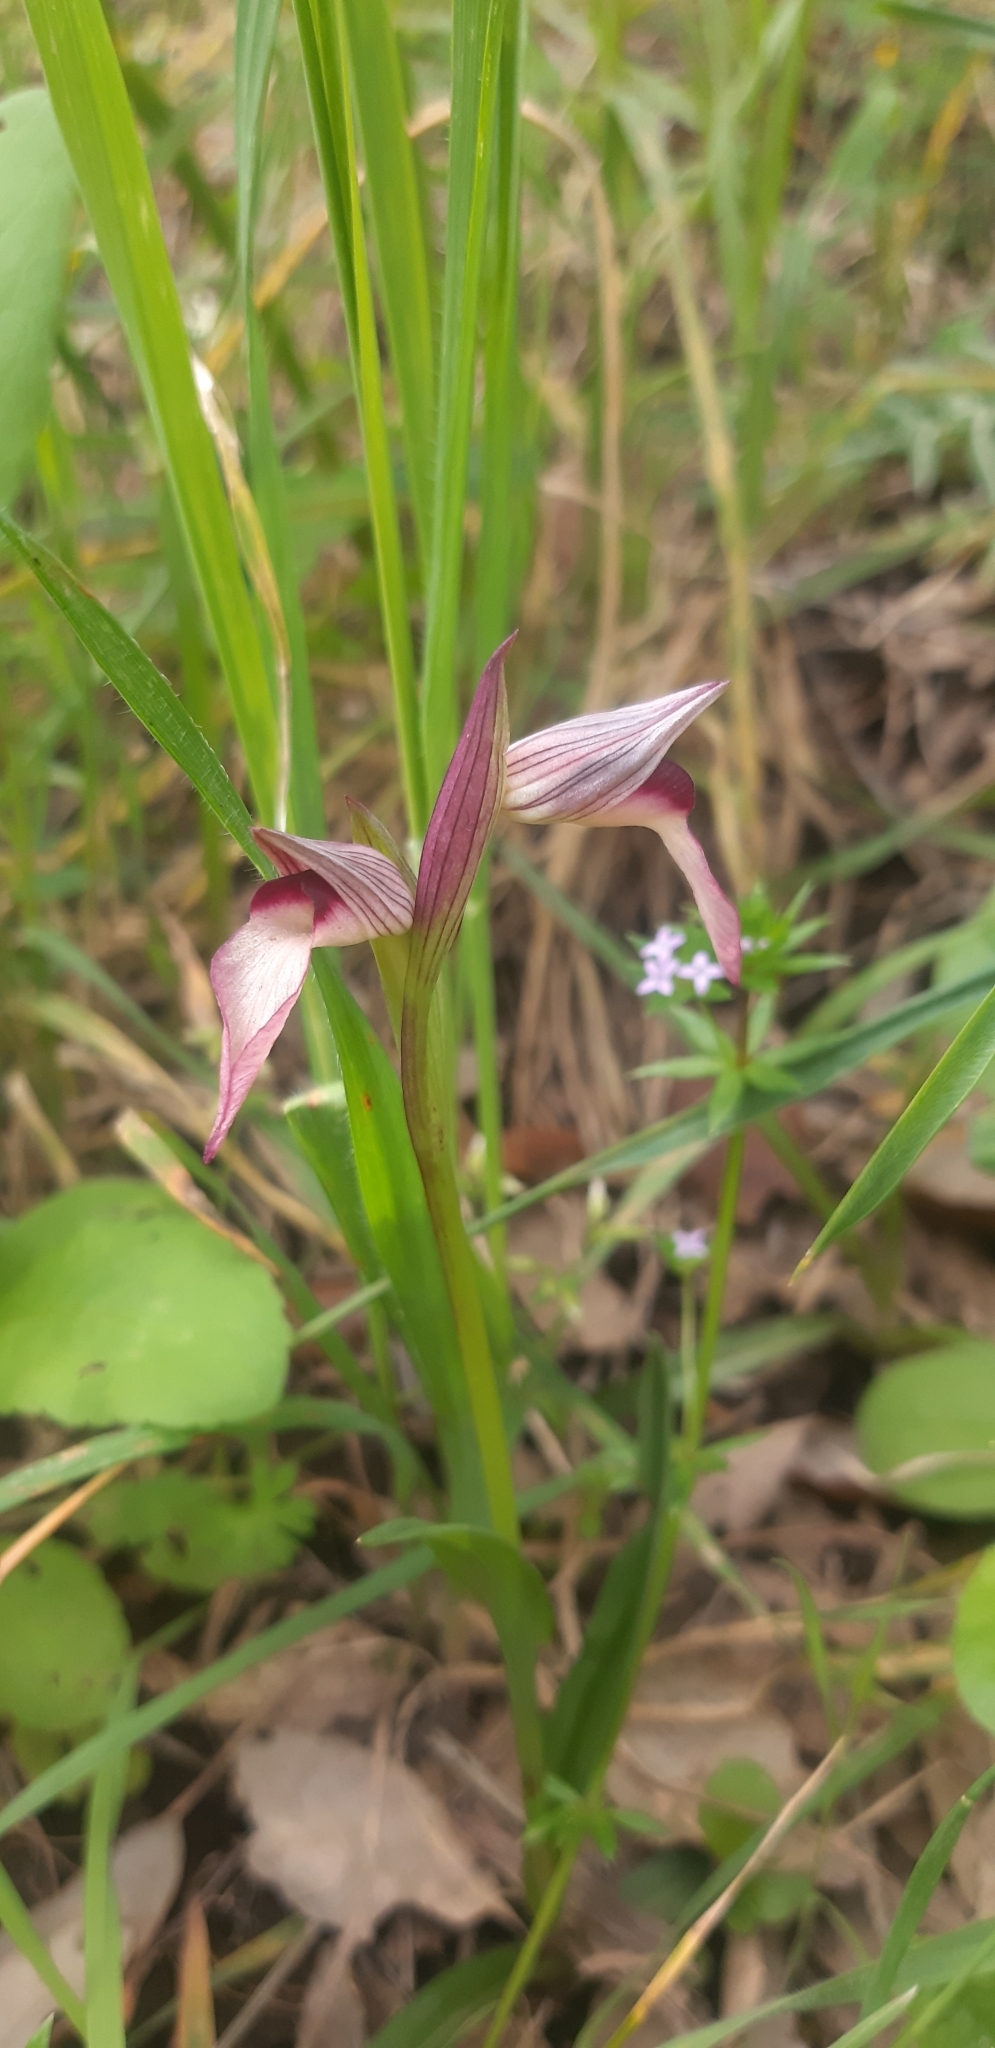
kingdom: Plantae
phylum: Tracheophyta
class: Liliopsida
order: Asparagales
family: Orchidaceae
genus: Serapias
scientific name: Serapias lingua
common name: Tongue-orchid
